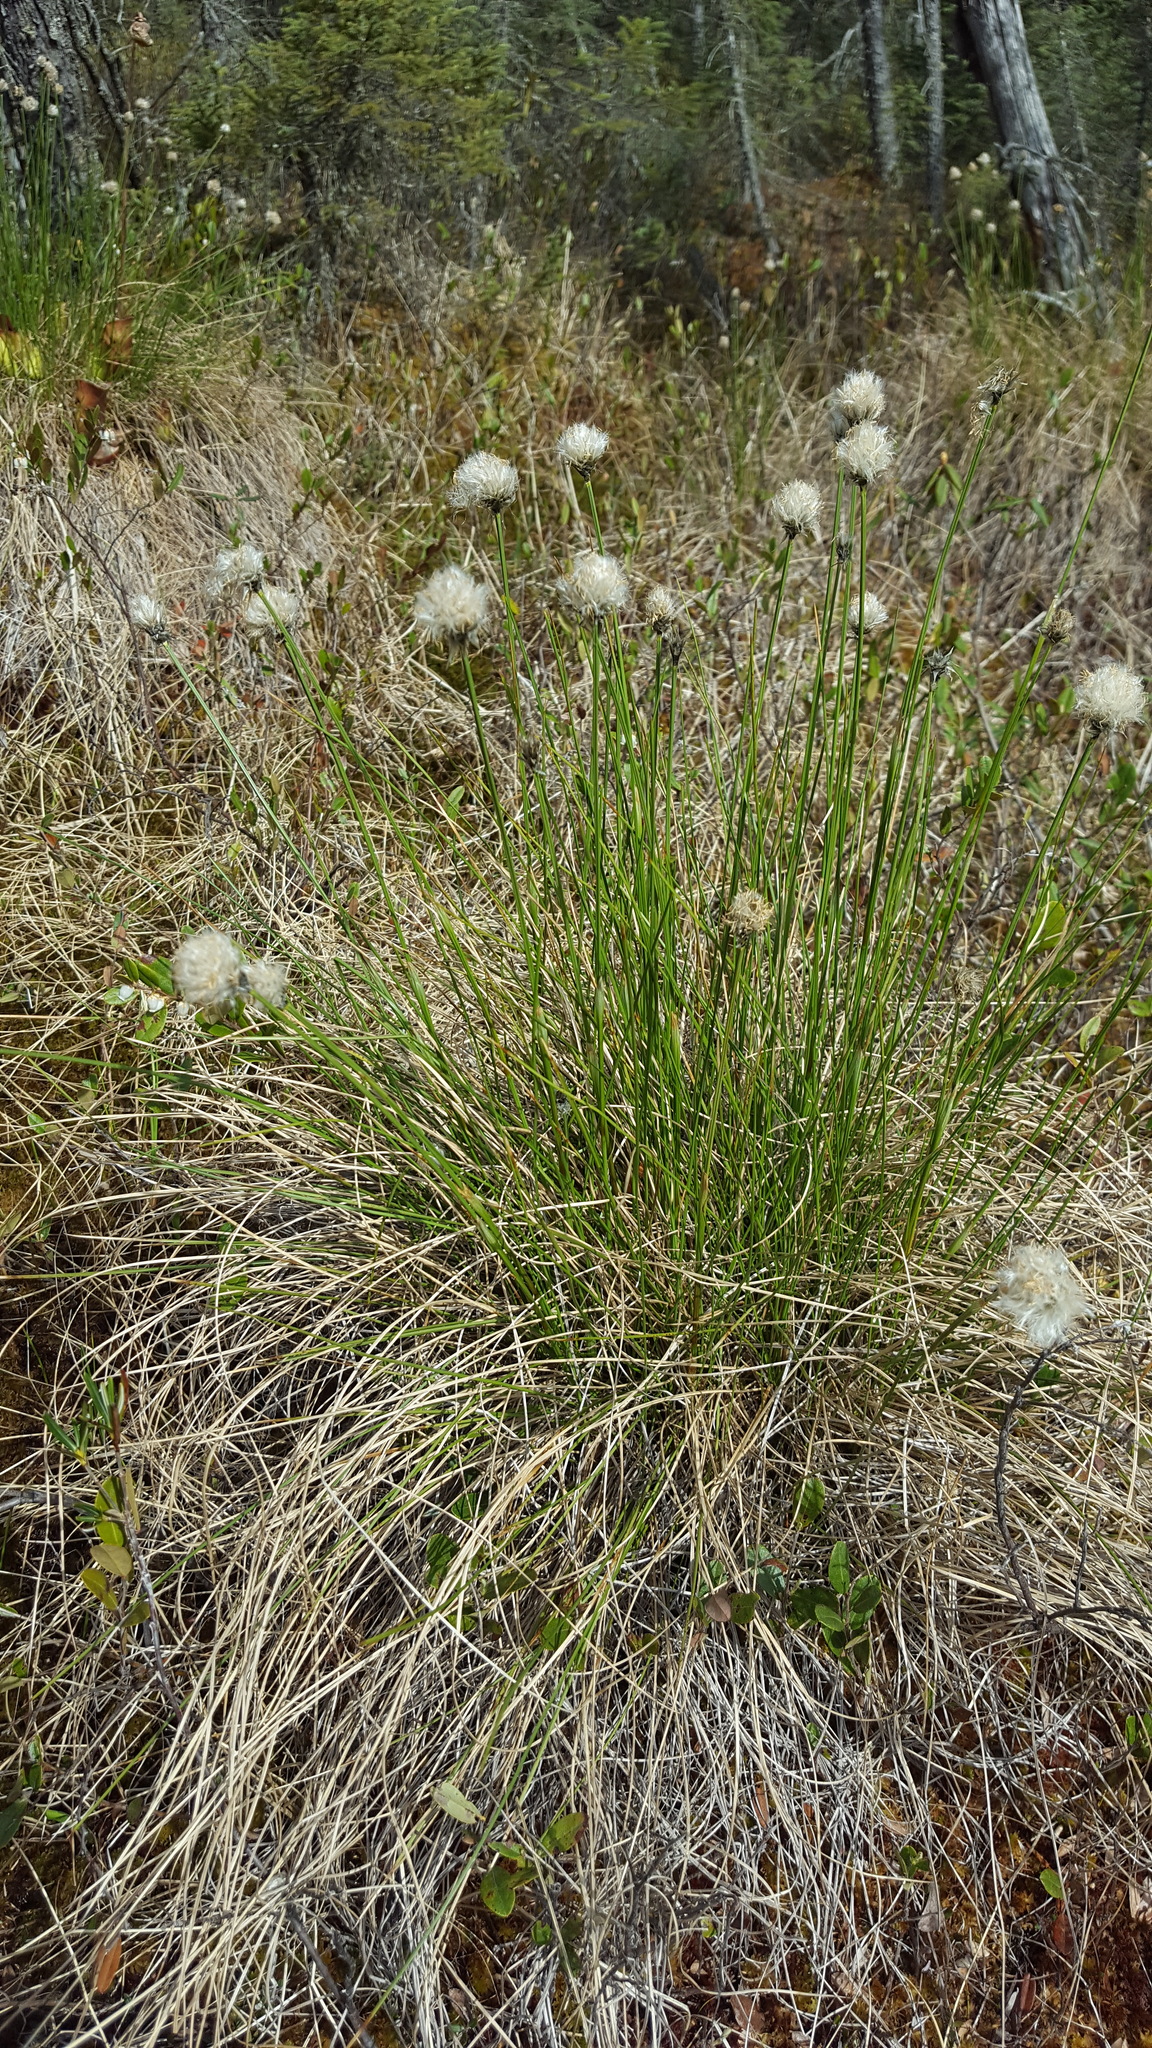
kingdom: Plantae
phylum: Tracheophyta
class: Liliopsida
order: Poales
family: Cyperaceae
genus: Eriophorum
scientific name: Eriophorum vaginatum
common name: Hare's-tail cottongrass
